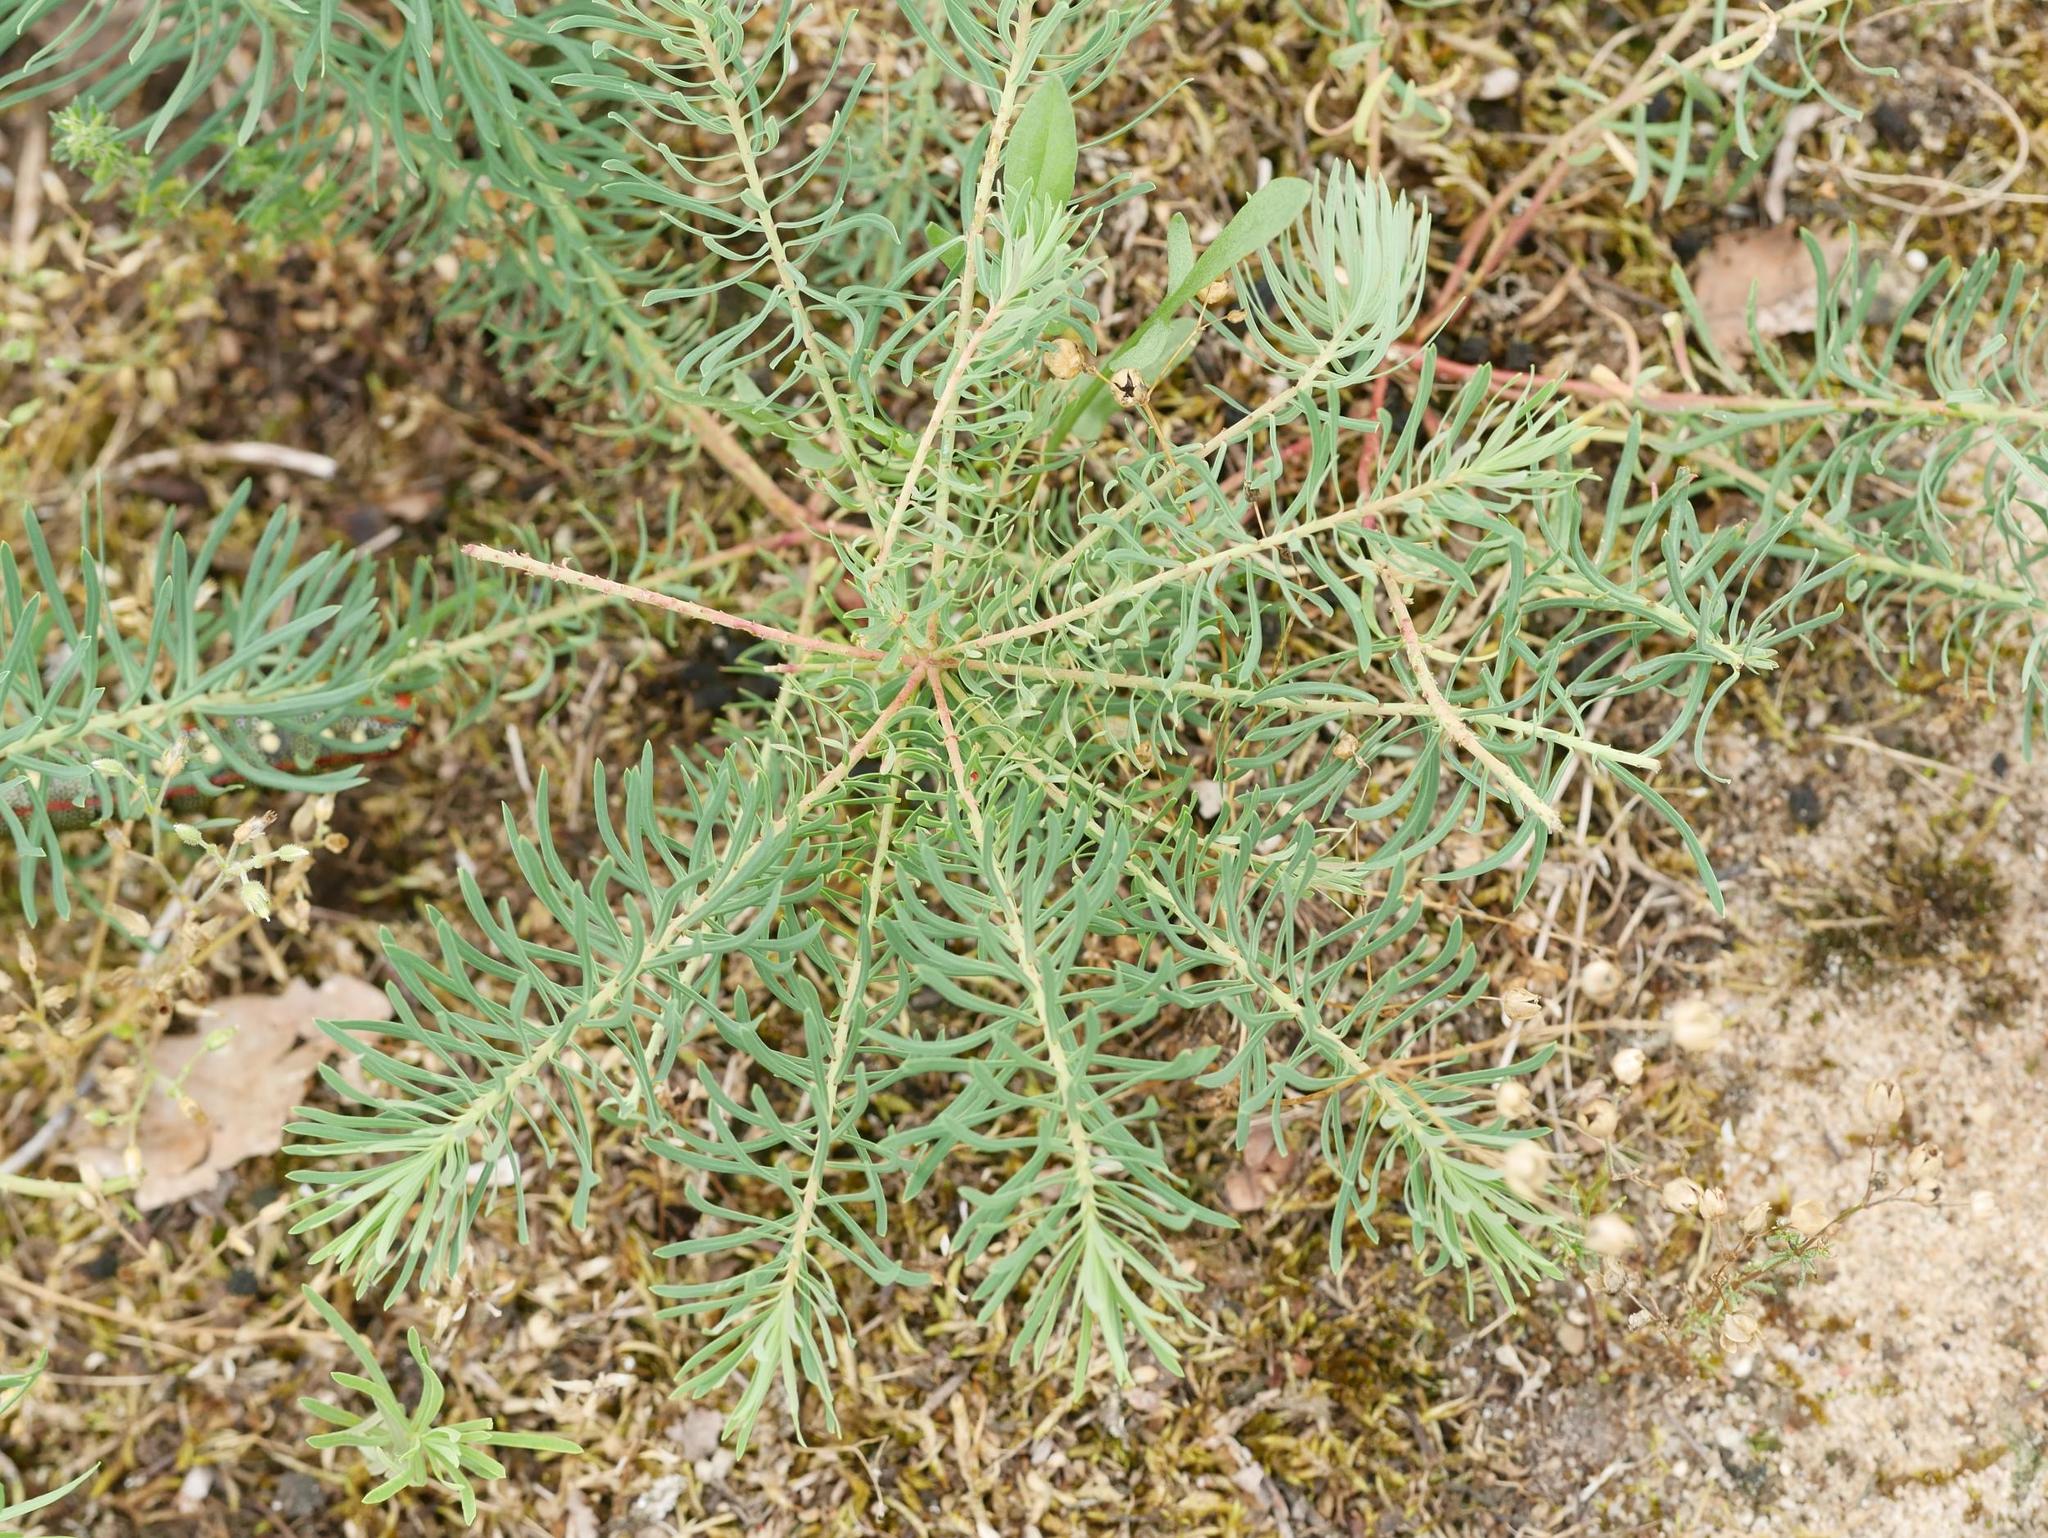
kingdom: Plantae
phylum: Tracheophyta
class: Magnoliopsida
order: Malpighiales
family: Euphorbiaceae
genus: Euphorbia
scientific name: Euphorbia cyparissias
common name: Cypress spurge
